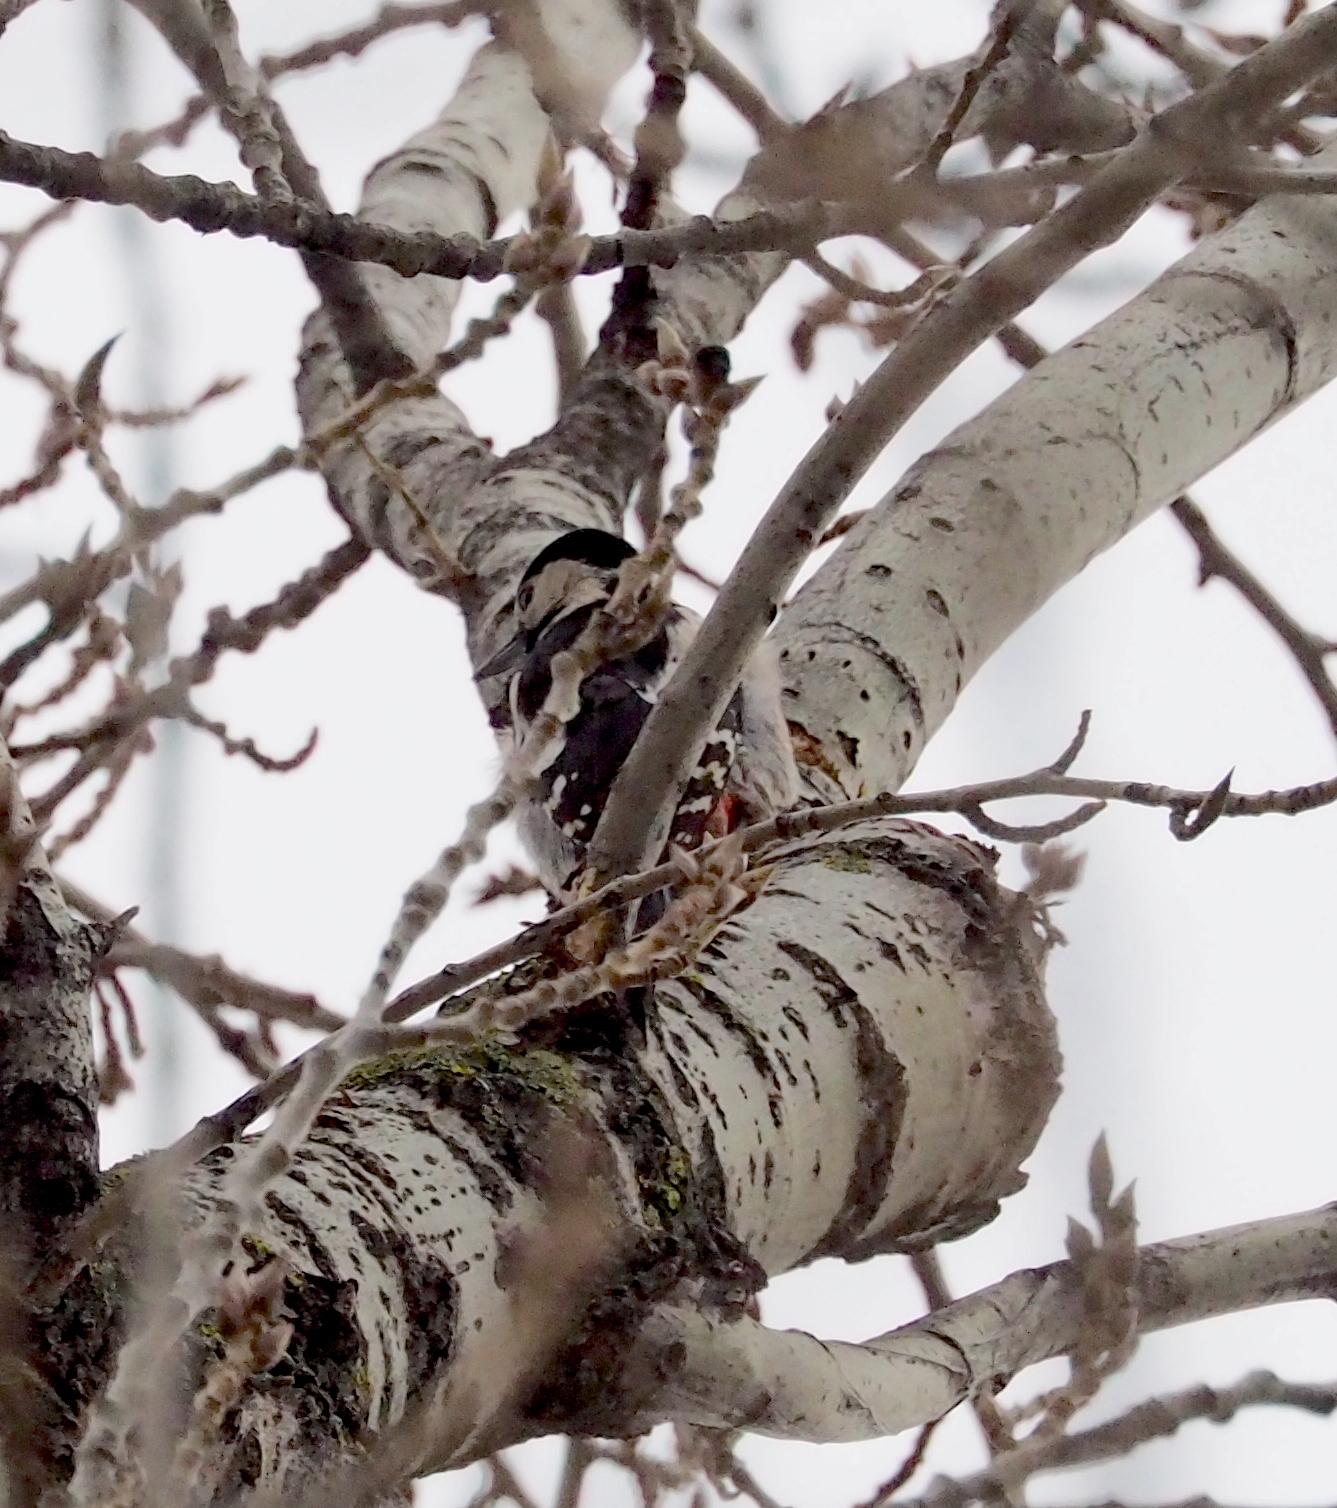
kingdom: Animalia
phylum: Chordata
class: Aves
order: Piciformes
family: Picidae
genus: Dendrocopos
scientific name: Dendrocopos syriacus
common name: Syrian woodpecker
